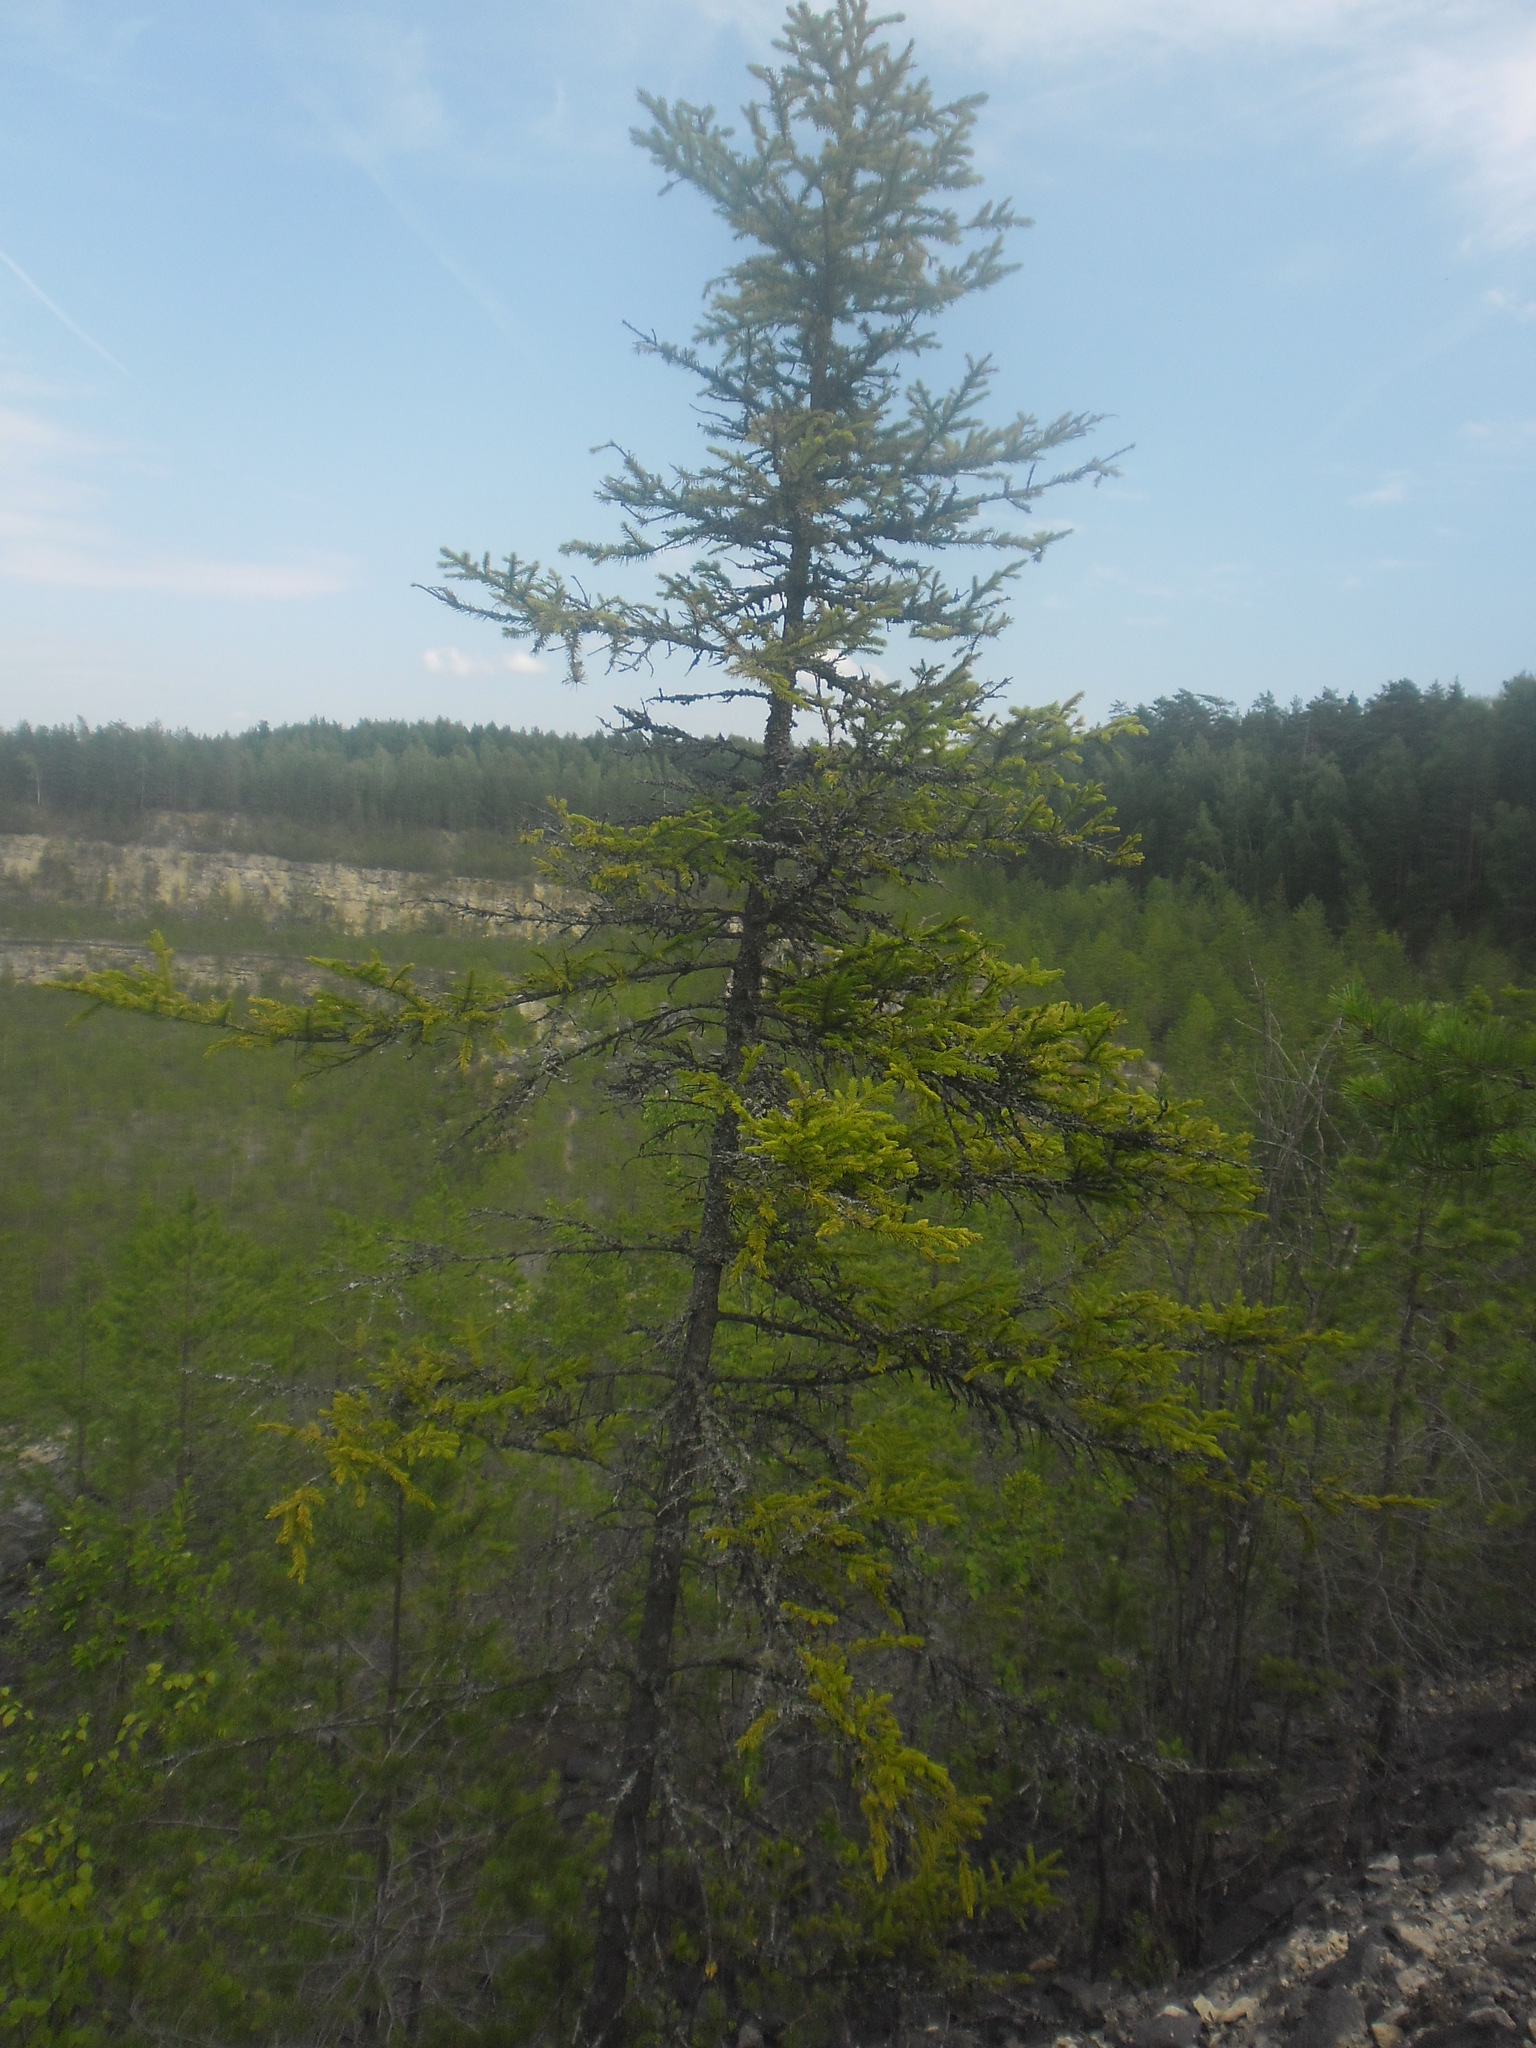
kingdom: Plantae
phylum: Tracheophyta
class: Pinopsida
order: Pinales
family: Pinaceae
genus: Picea
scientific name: Picea abies
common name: Norway spruce
